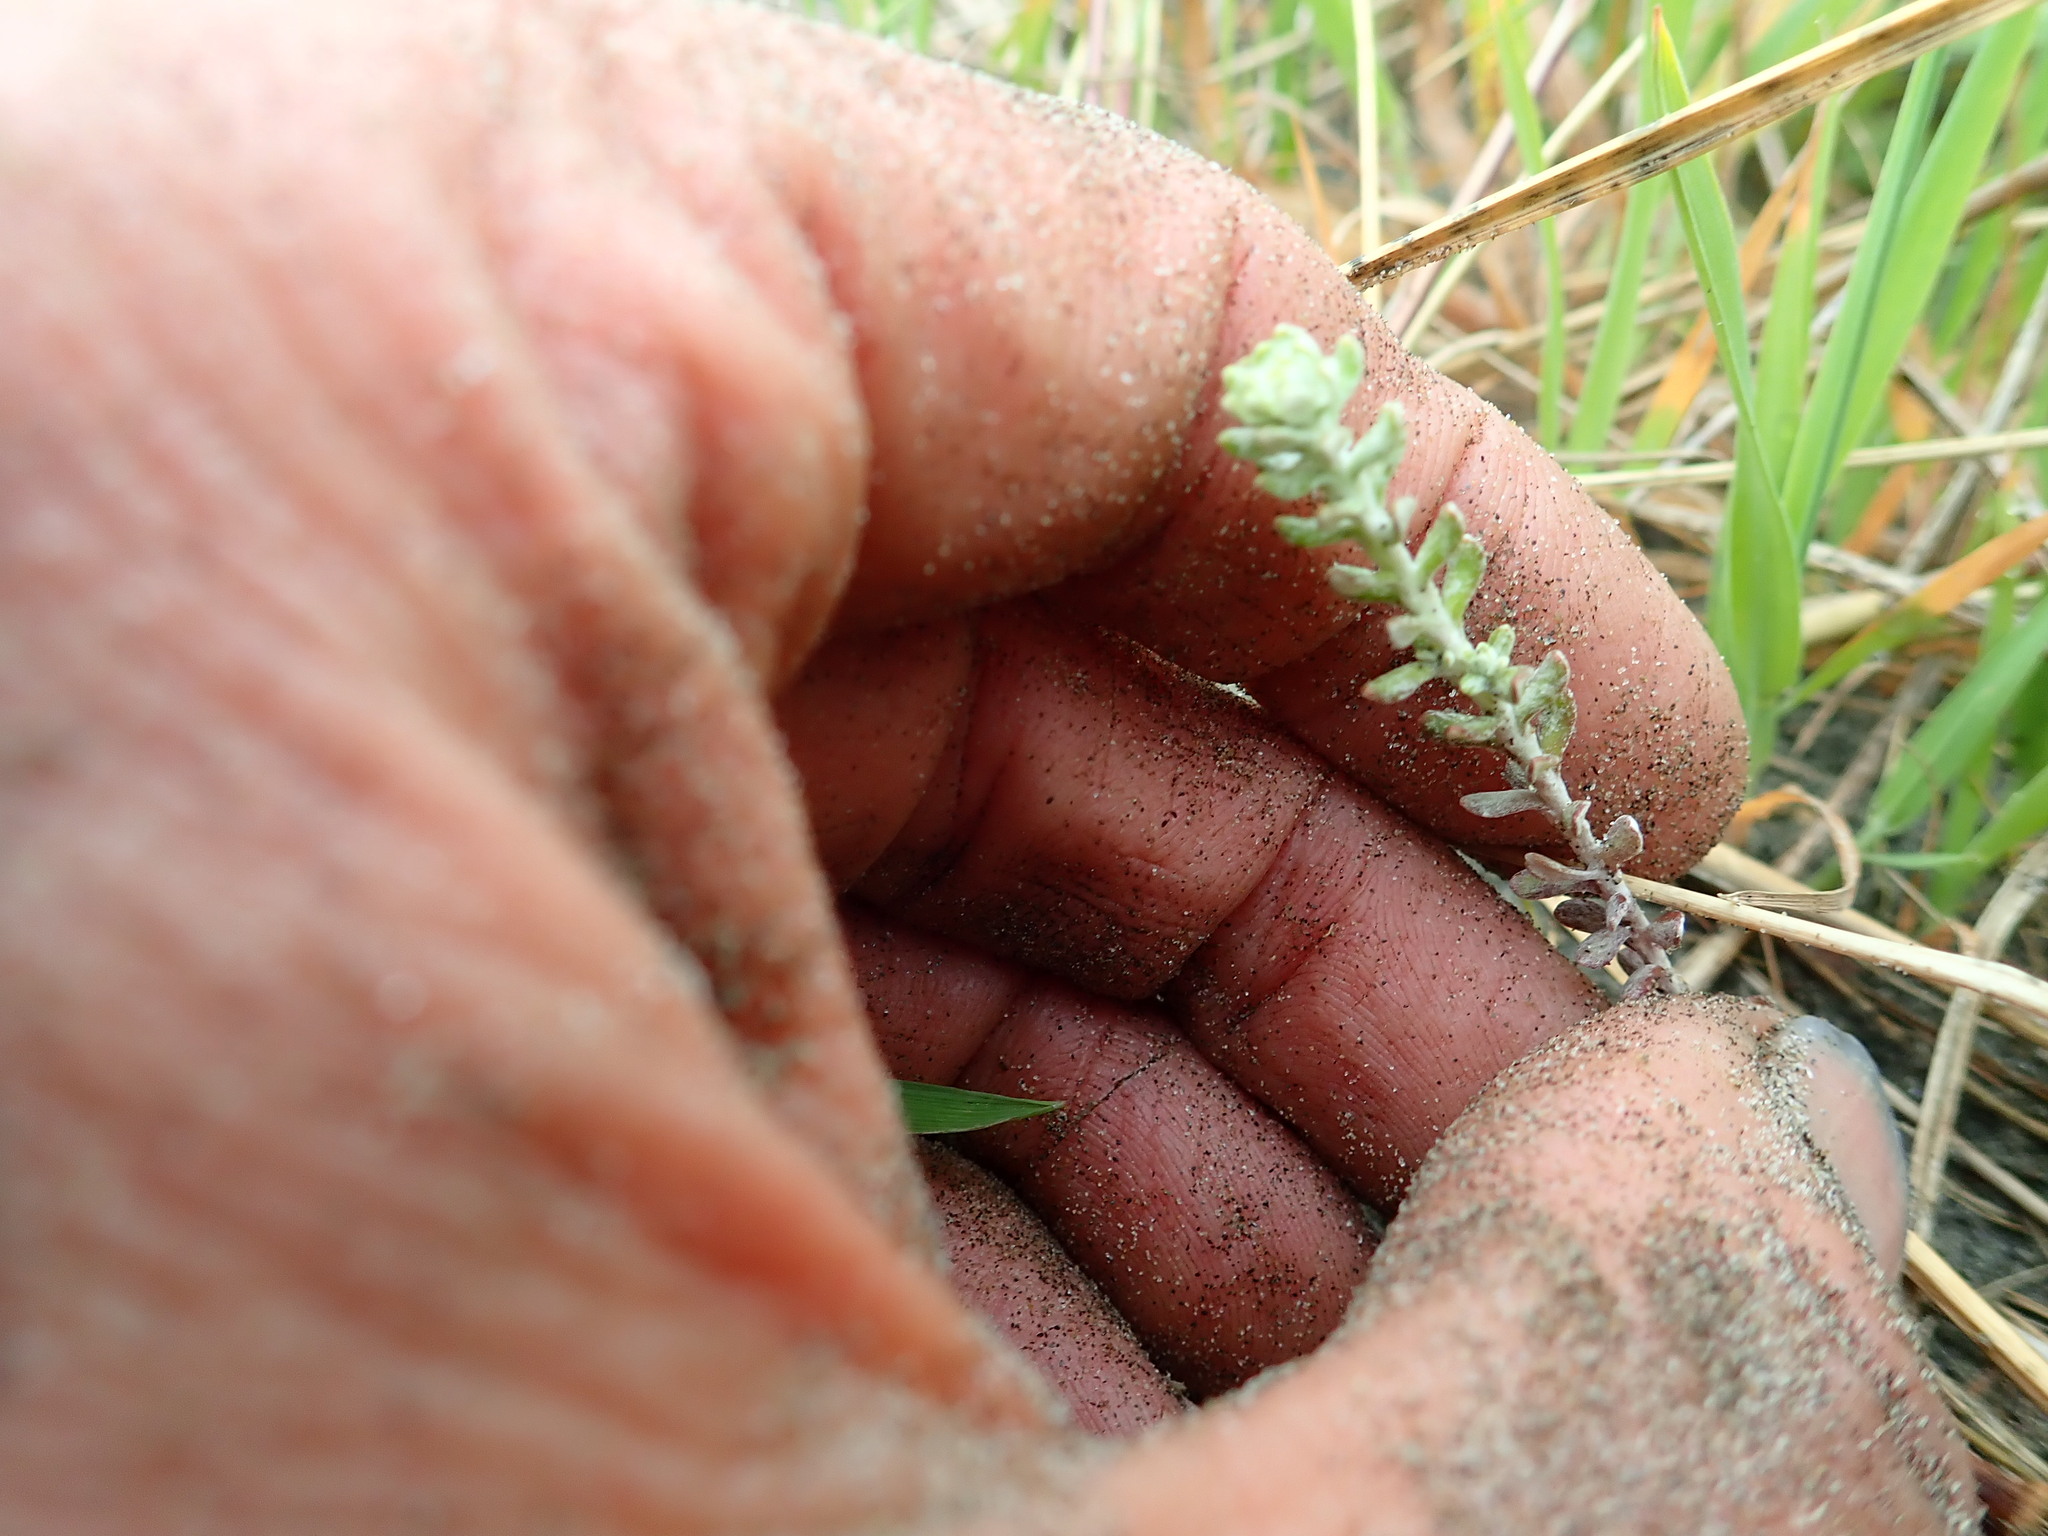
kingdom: Plantae
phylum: Tracheophyta
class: Magnoliopsida
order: Asterales
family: Asteraceae
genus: Ozothamnus
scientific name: Ozothamnus leptophyllus
